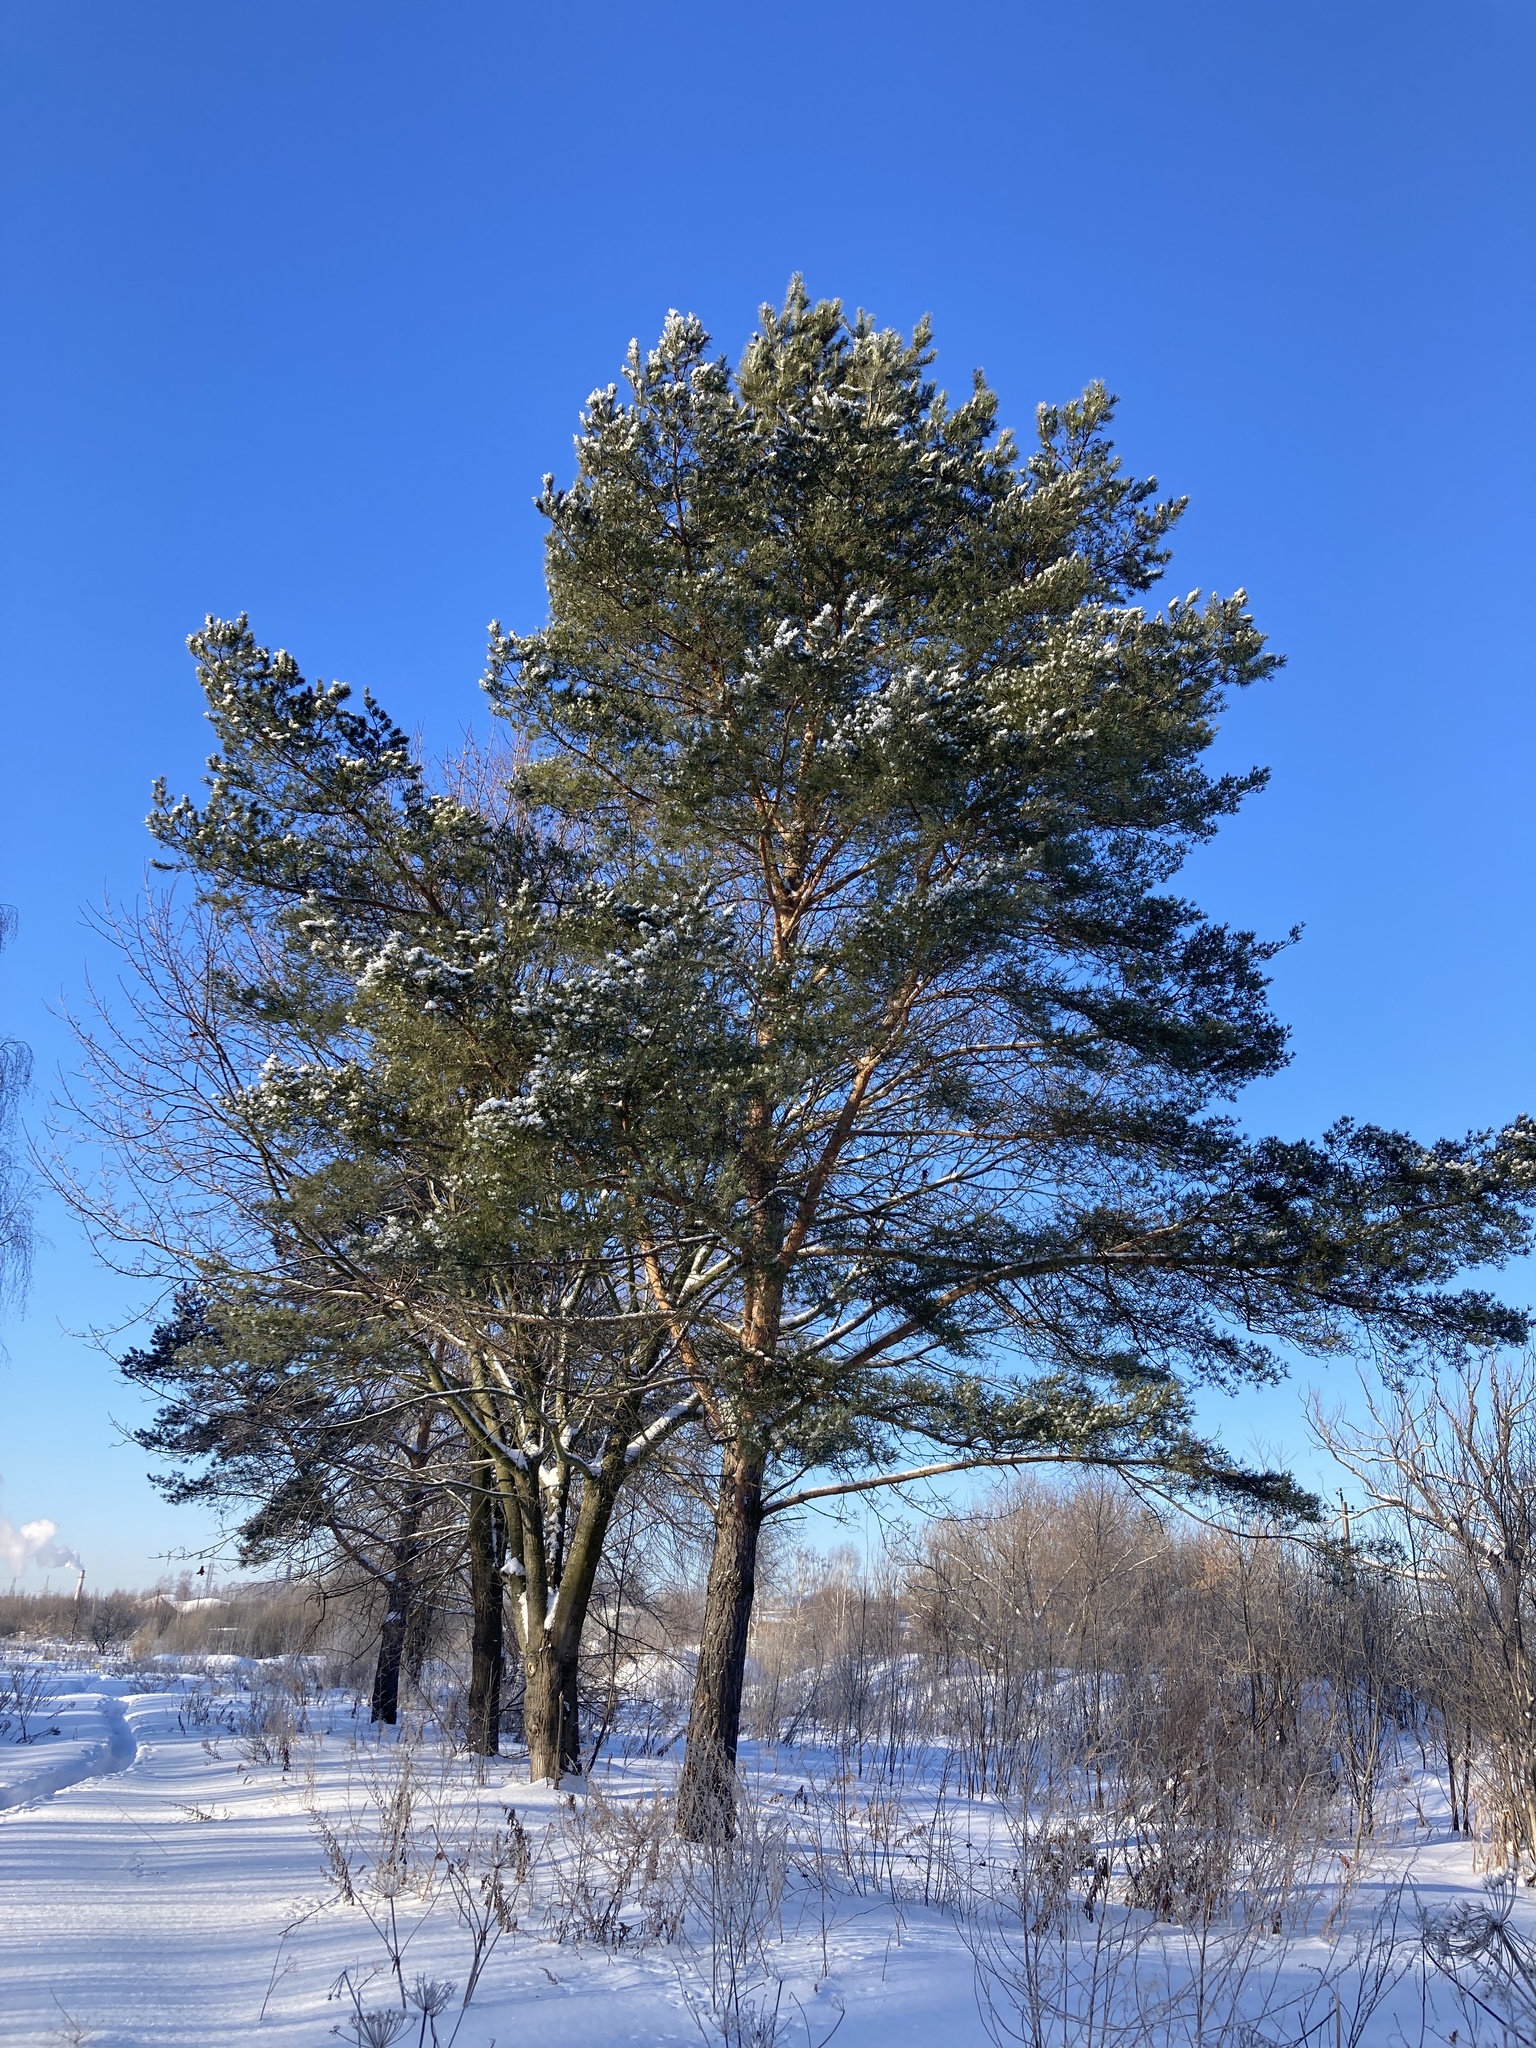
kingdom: Plantae
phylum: Tracheophyta
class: Pinopsida
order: Pinales
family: Pinaceae
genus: Pinus
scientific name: Pinus sylvestris
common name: Scots pine
